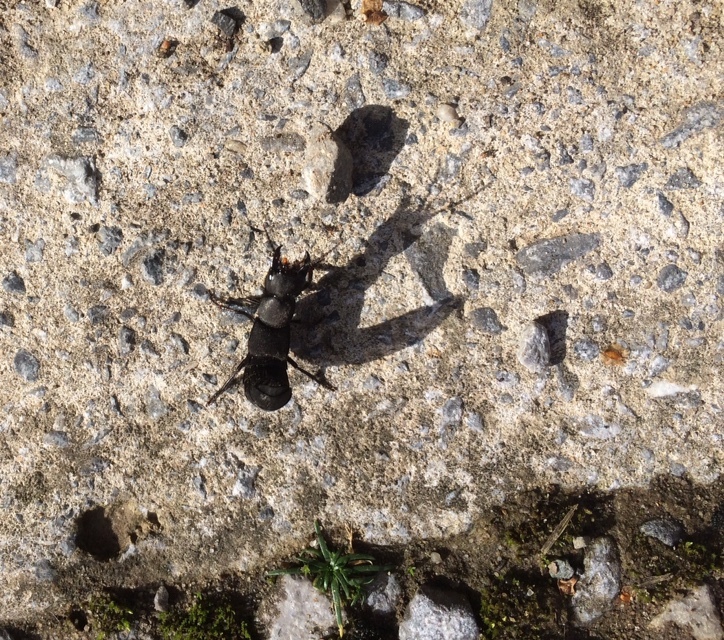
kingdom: Animalia
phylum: Arthropoda
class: Insecta
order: Coleoptera
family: Staphylinidae
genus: Ocypus
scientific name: Ocypus olens
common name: Devil's coach-horse
